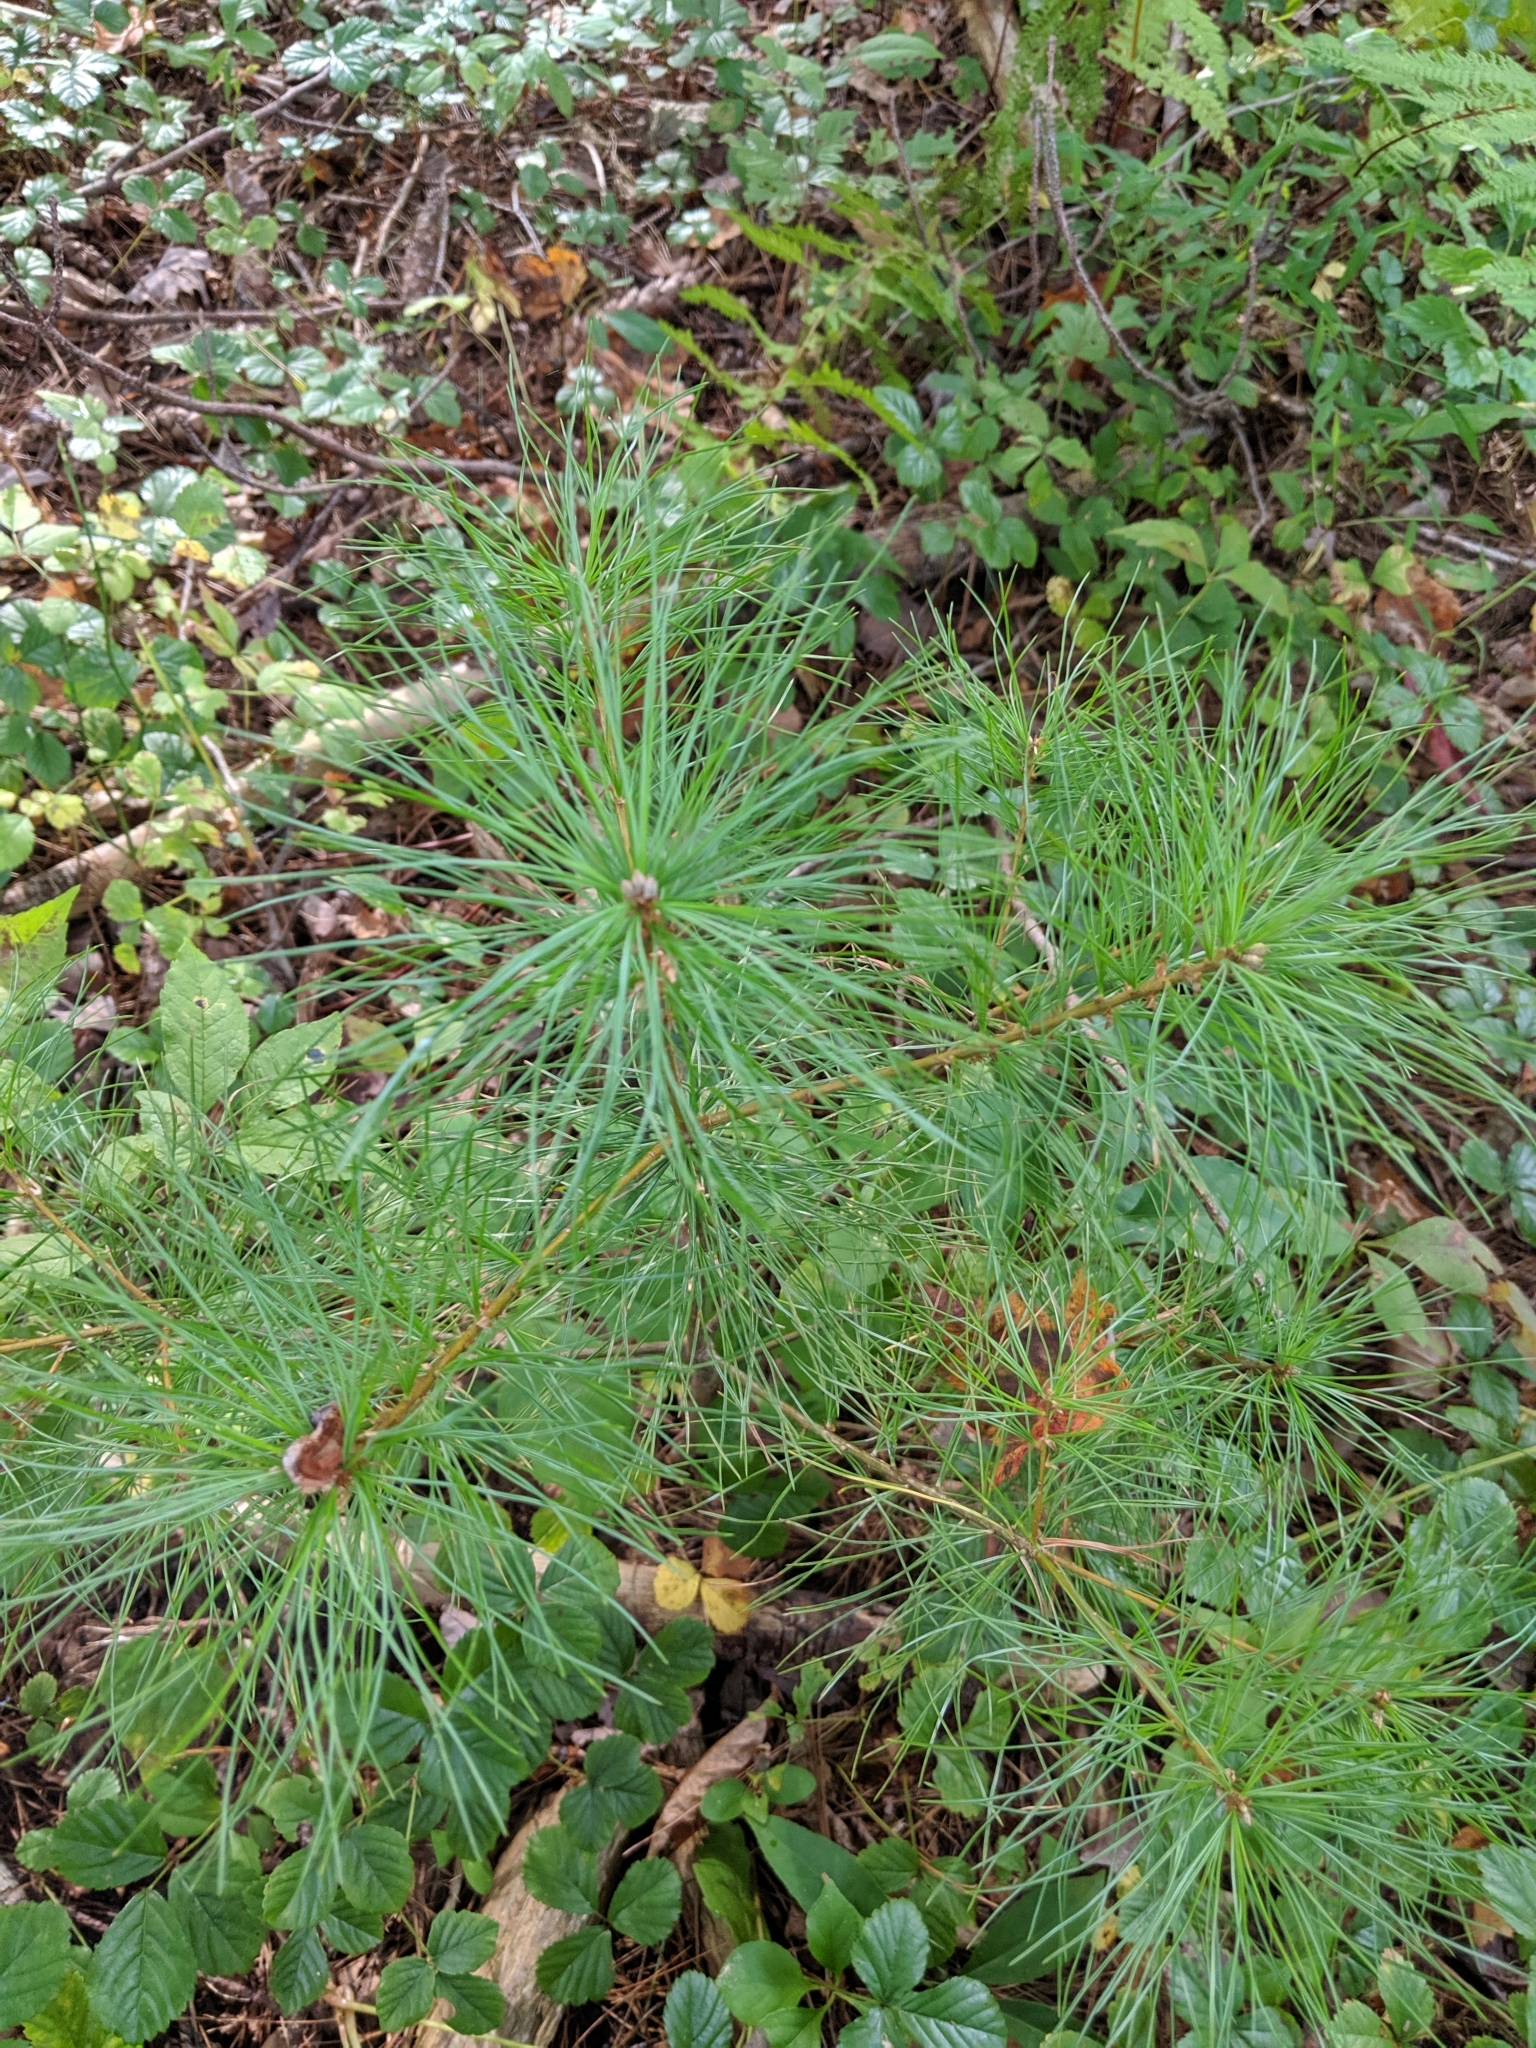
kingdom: Plantae
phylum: Tracheophyta
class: Pinopsida
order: Pinales
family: Pinaceae
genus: Pinus
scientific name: Pinus strobus
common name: Weymouth pine
